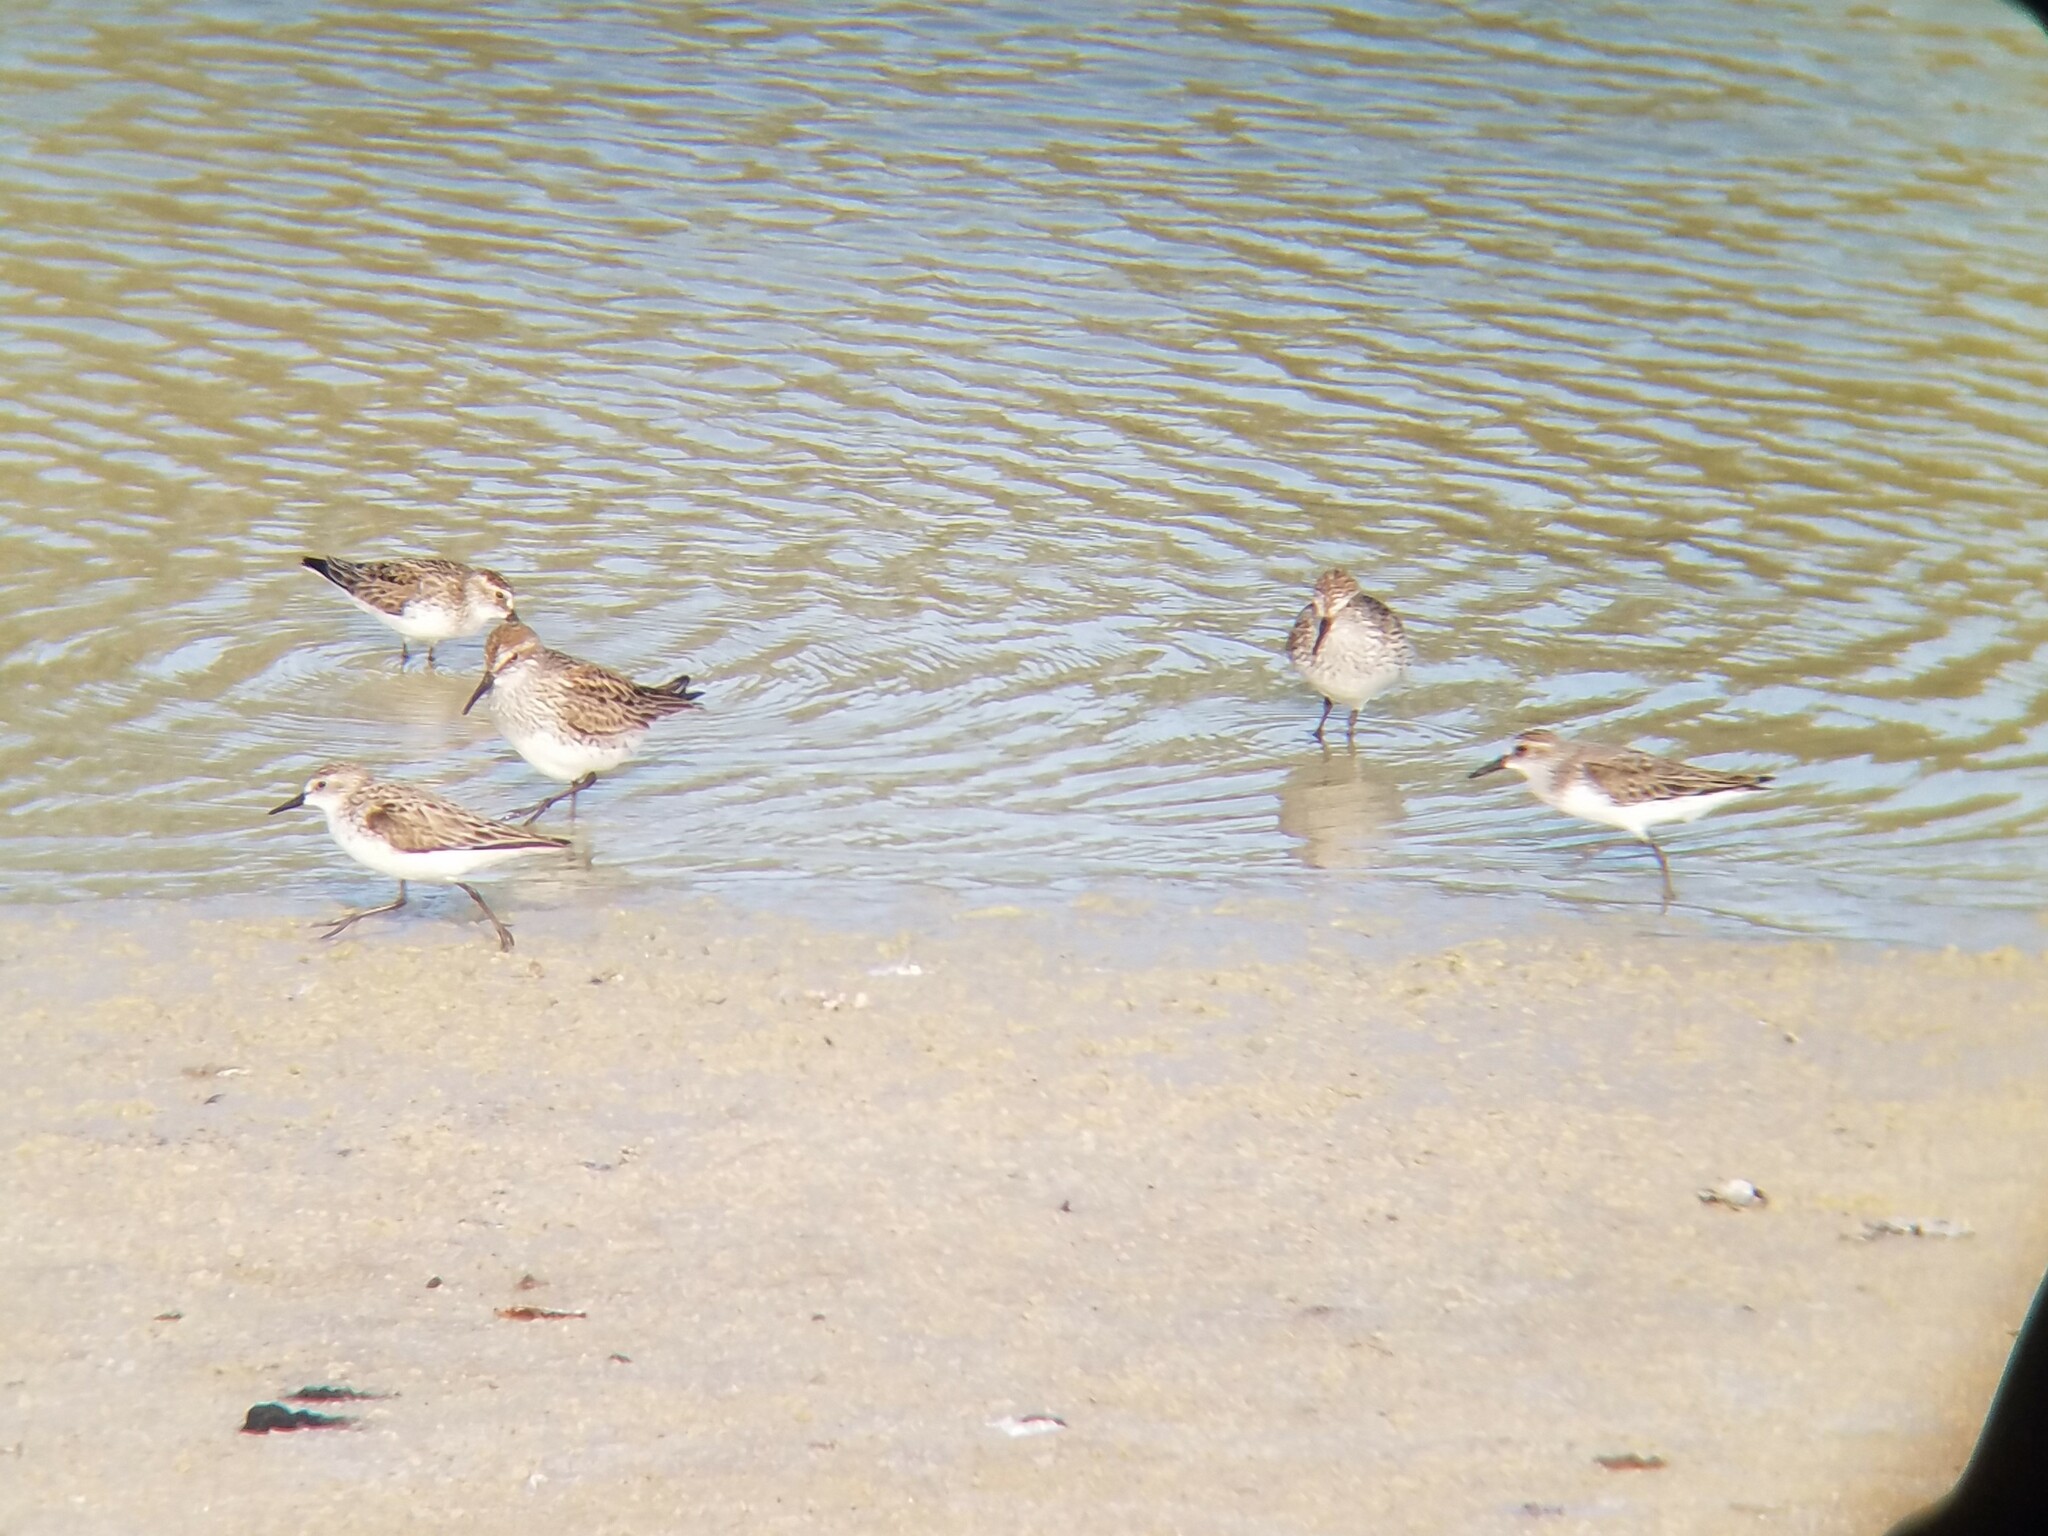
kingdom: Animalia
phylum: Chordata
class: Aves
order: Charadriiformes
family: Scolopacidae
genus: Calidris
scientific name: Calidris pusilla
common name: Semipalmated sandpiper
